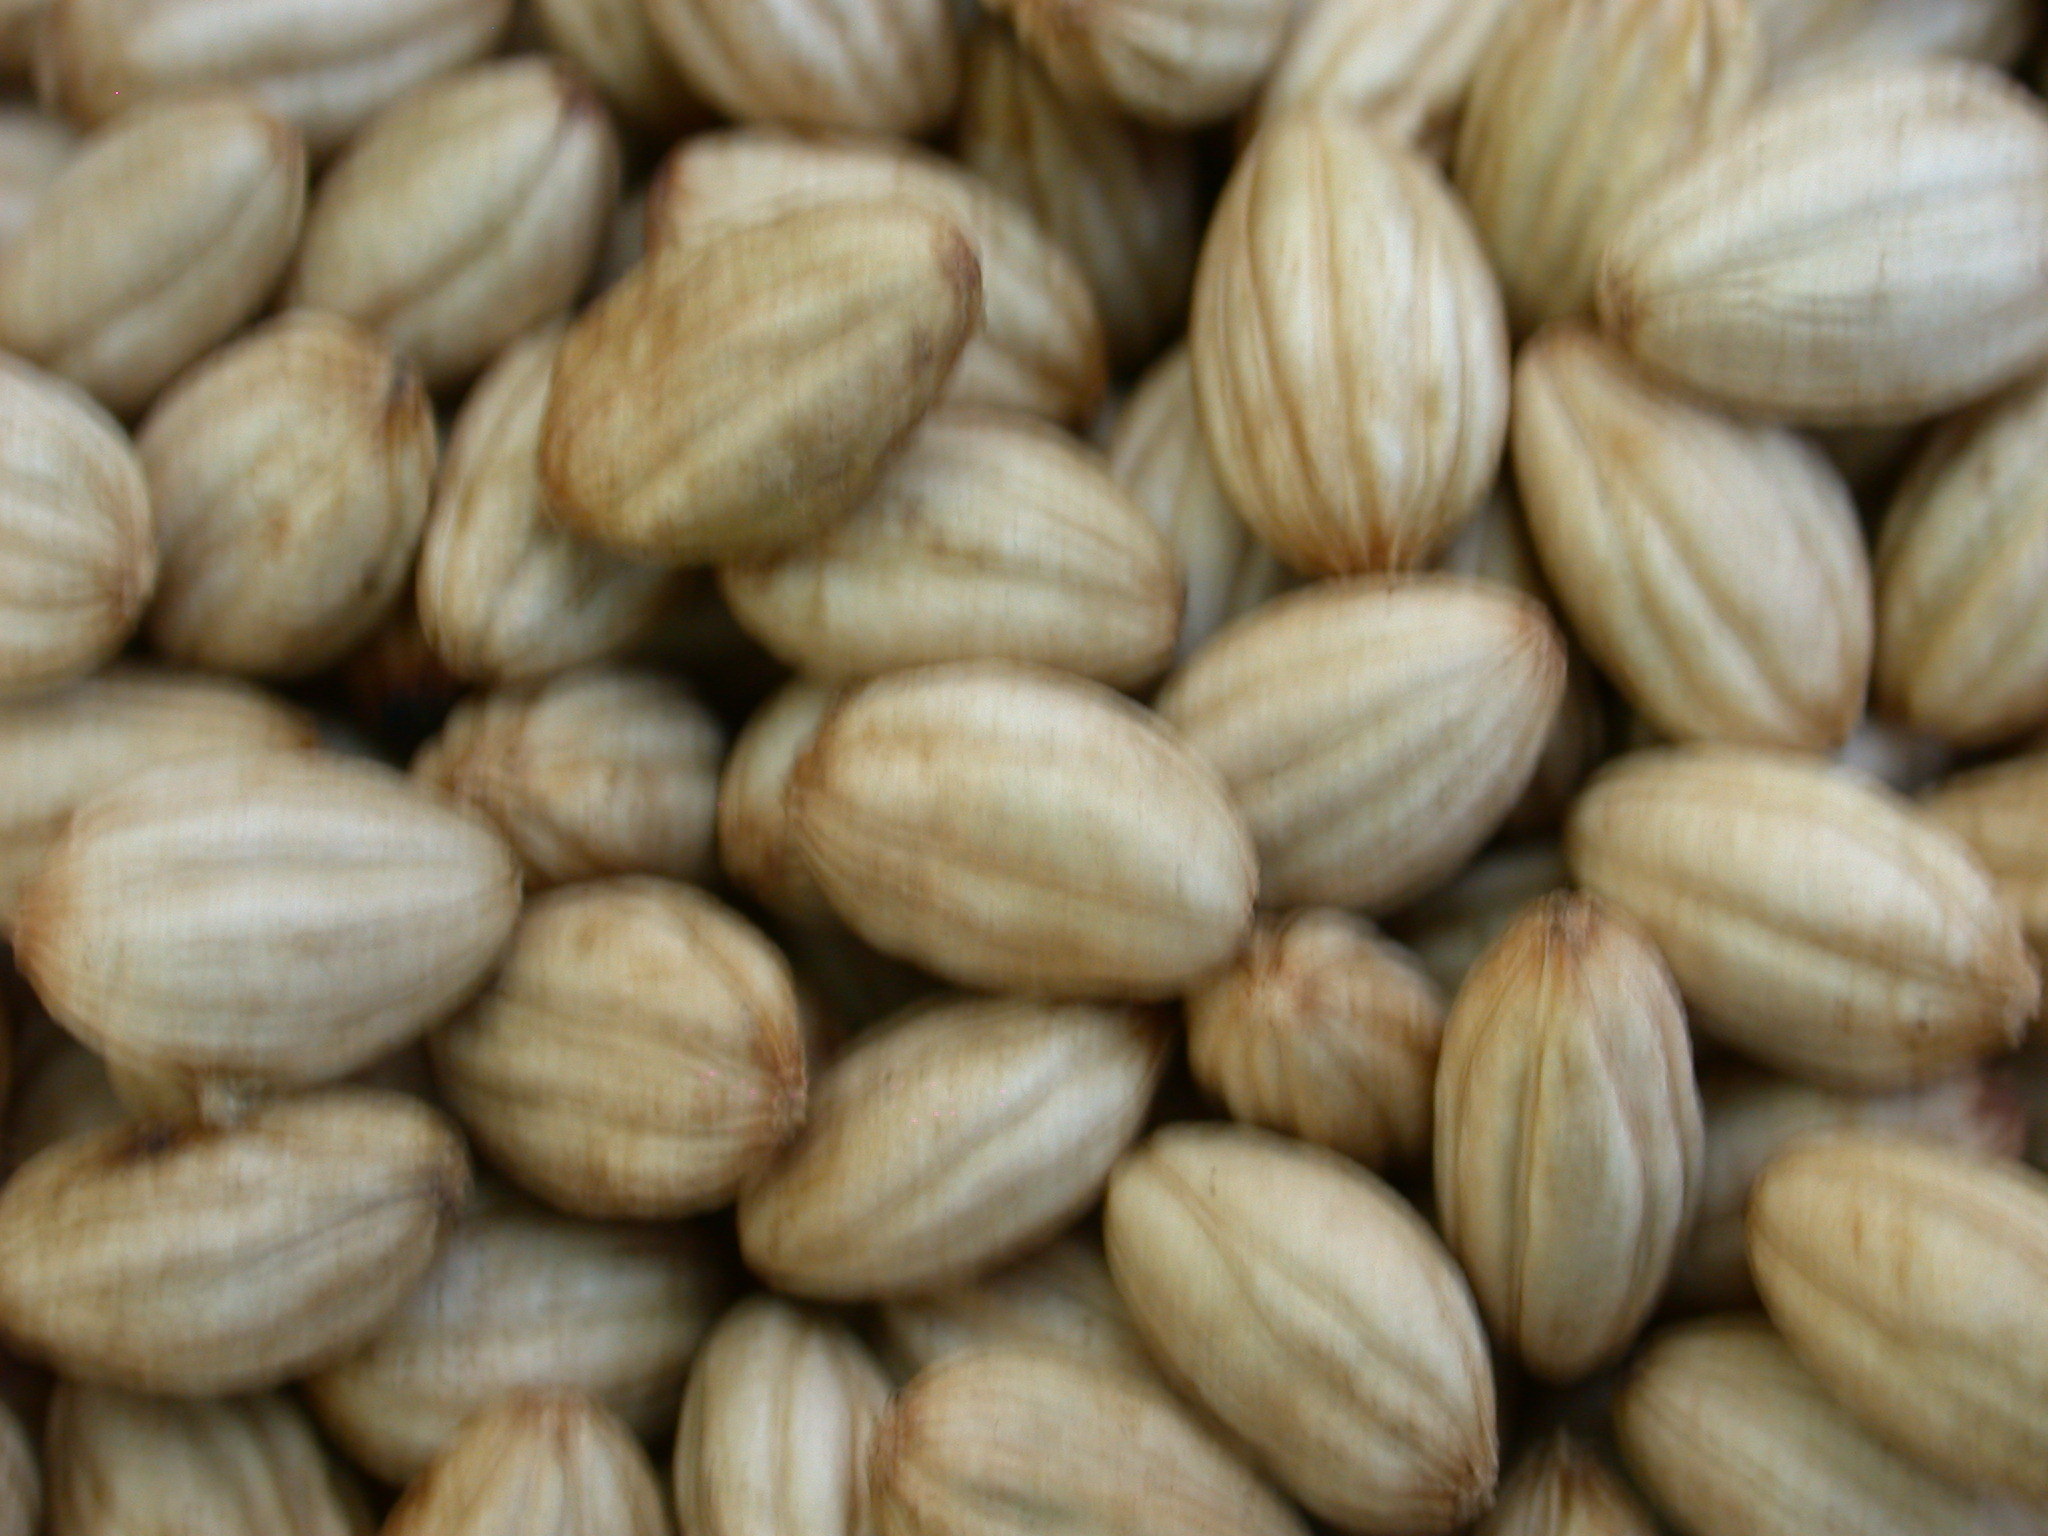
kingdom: Plantae
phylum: Tracheophyta
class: Magnoliopsida
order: Cornales
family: Cornaceae
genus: Cornus
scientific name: Cornus disciflora
